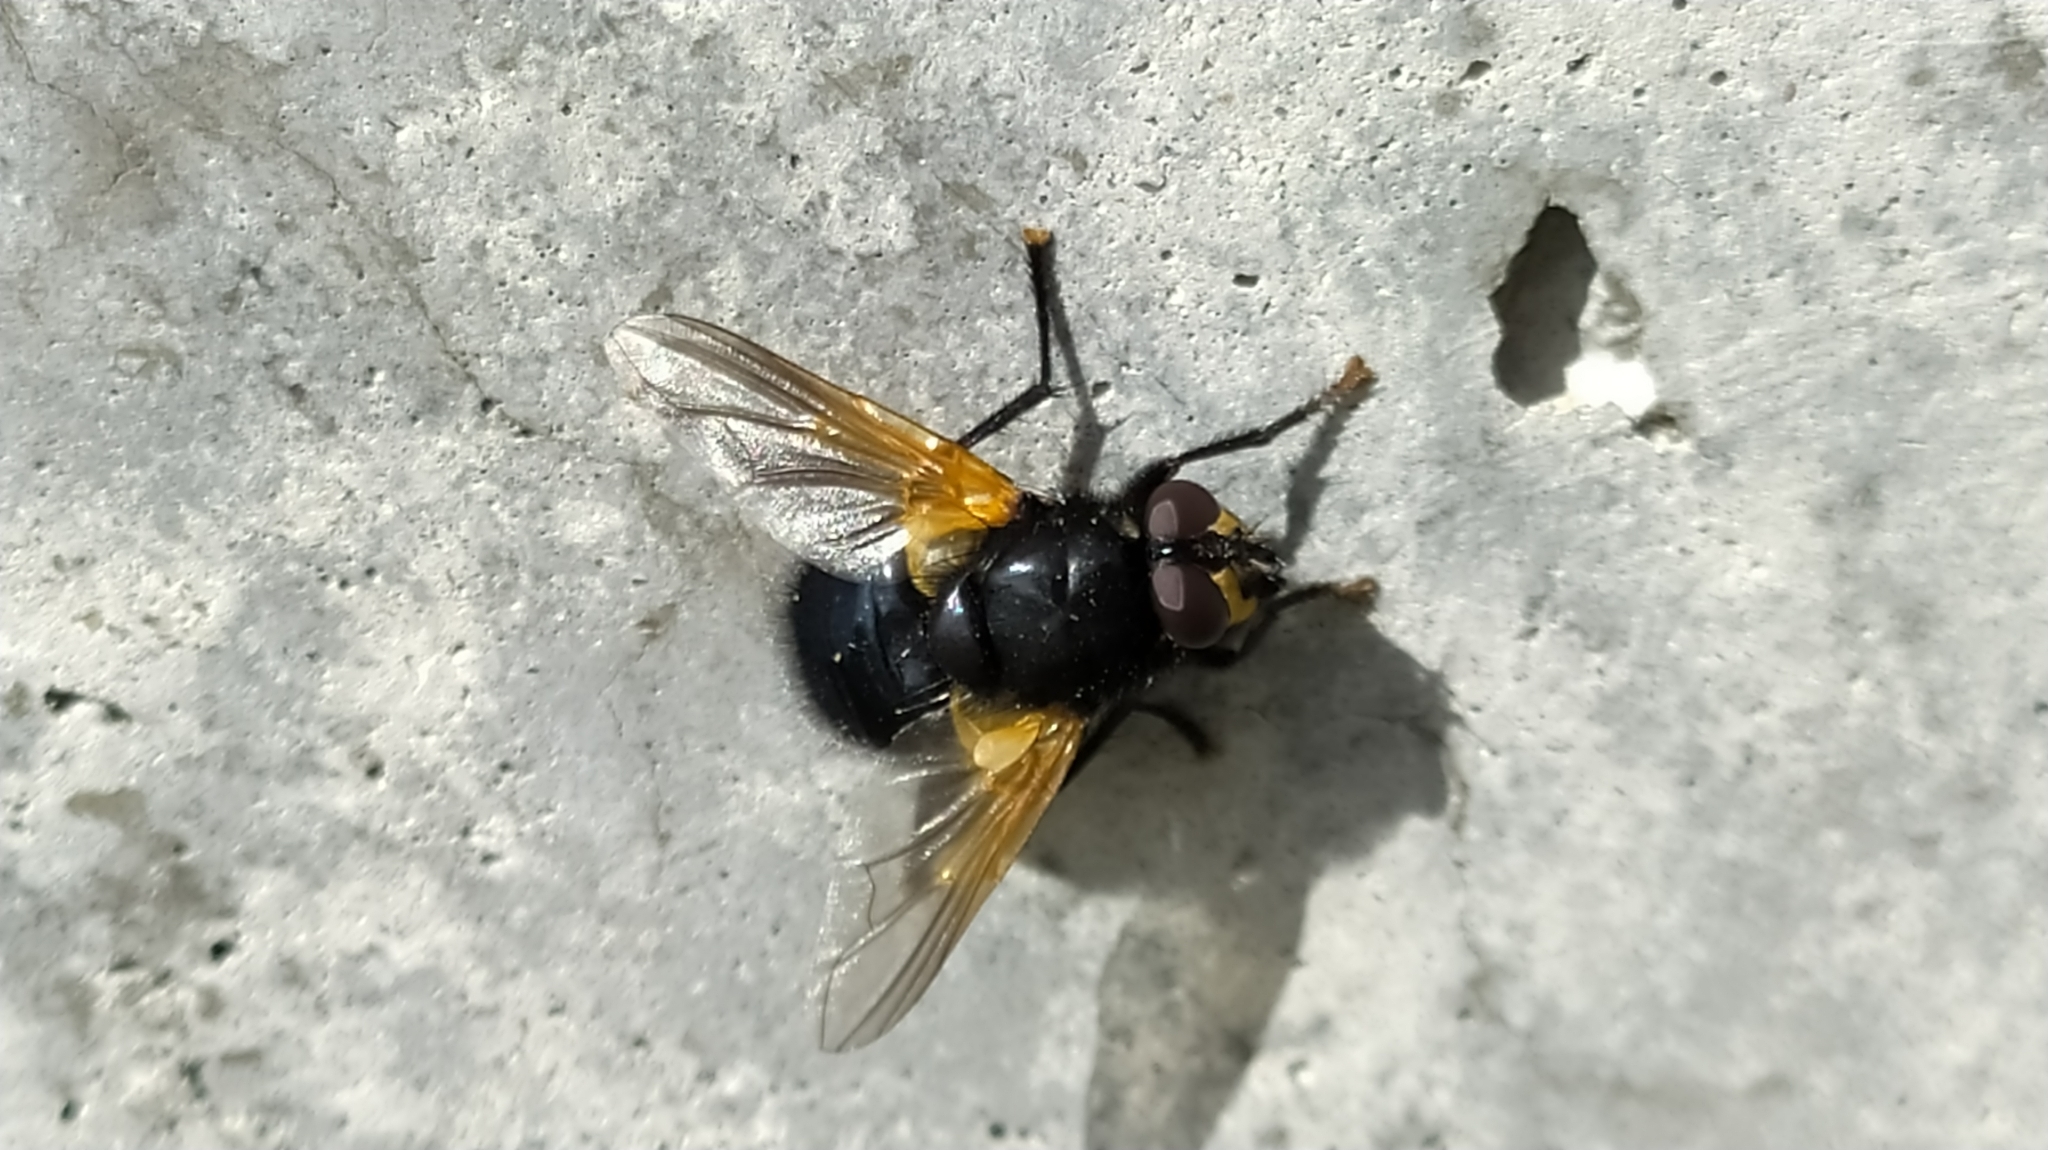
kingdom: Animalia
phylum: Arthropoda
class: Insecta
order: Diptera
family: Muscidae
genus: Mesembrina
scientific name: Mesembrina meridiana
